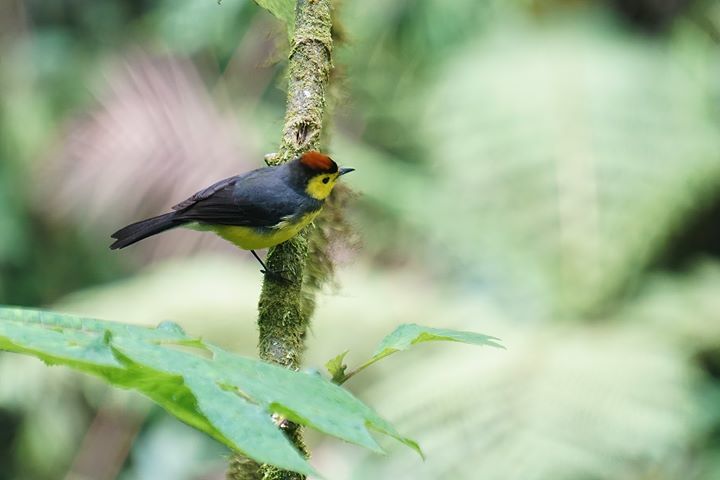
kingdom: Animalia
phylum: Chordata
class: Aves
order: Passeriformes
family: Parulidae
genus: Myioborus
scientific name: Myioborus torquatus
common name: Collared whitestart
